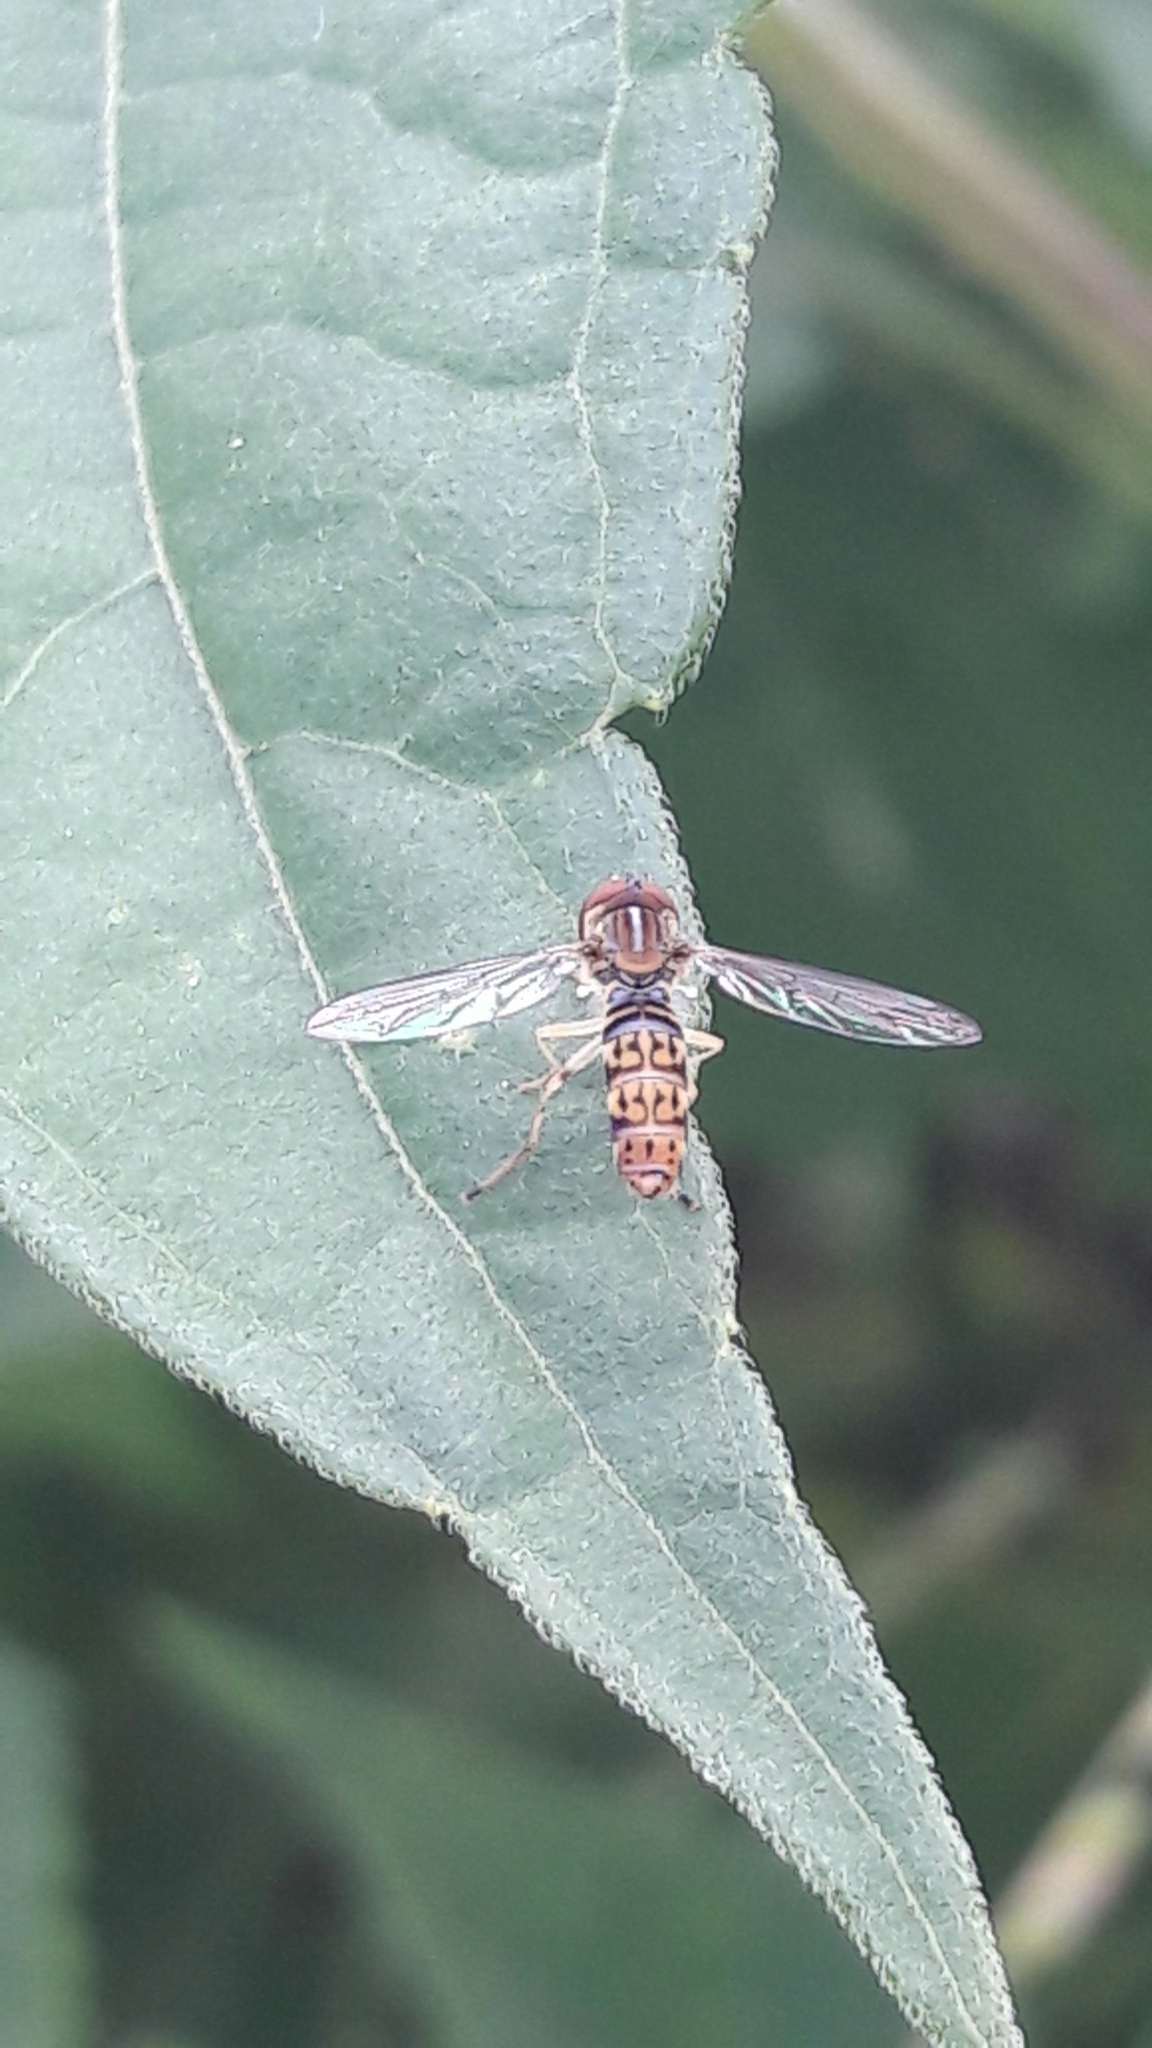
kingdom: Animalia
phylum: Arthropoda
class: Insecta
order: Diptera
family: Syrphidae
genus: Toxomerus
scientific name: Toxomerus
